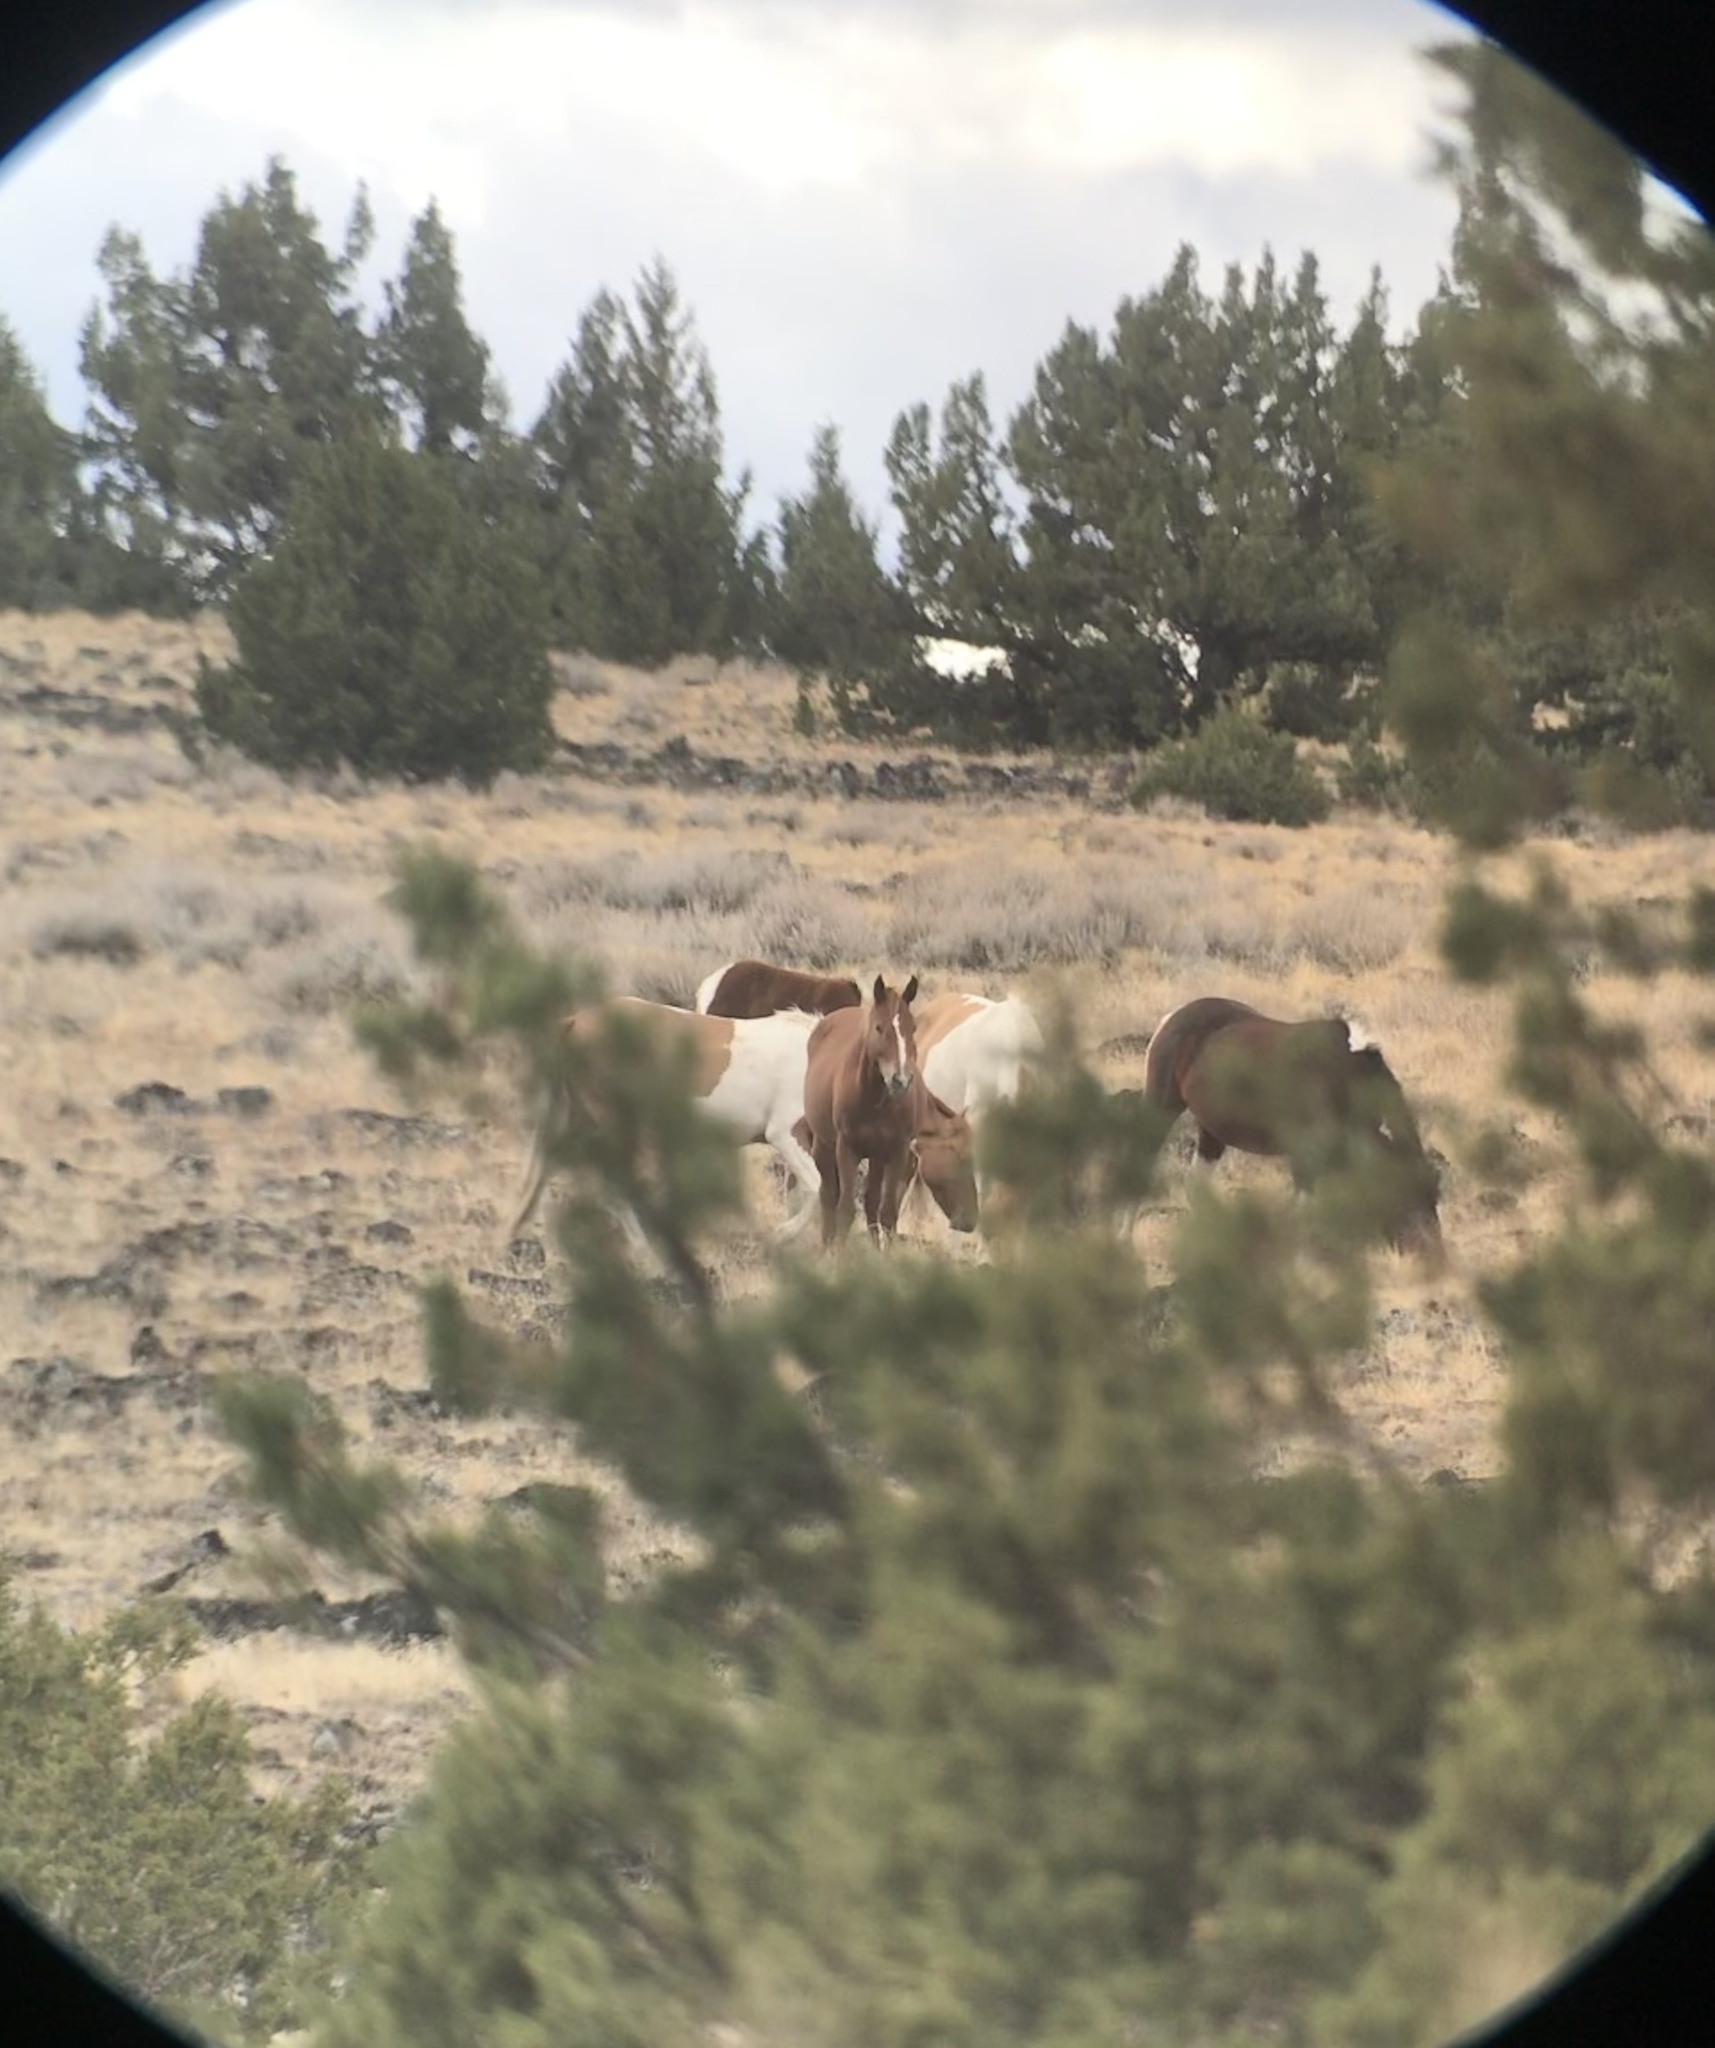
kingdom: Animalia
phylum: Chordata
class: Mammalia
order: Perissodactyla
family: Equidae
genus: Equus
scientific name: Equus caballus
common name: Horse
